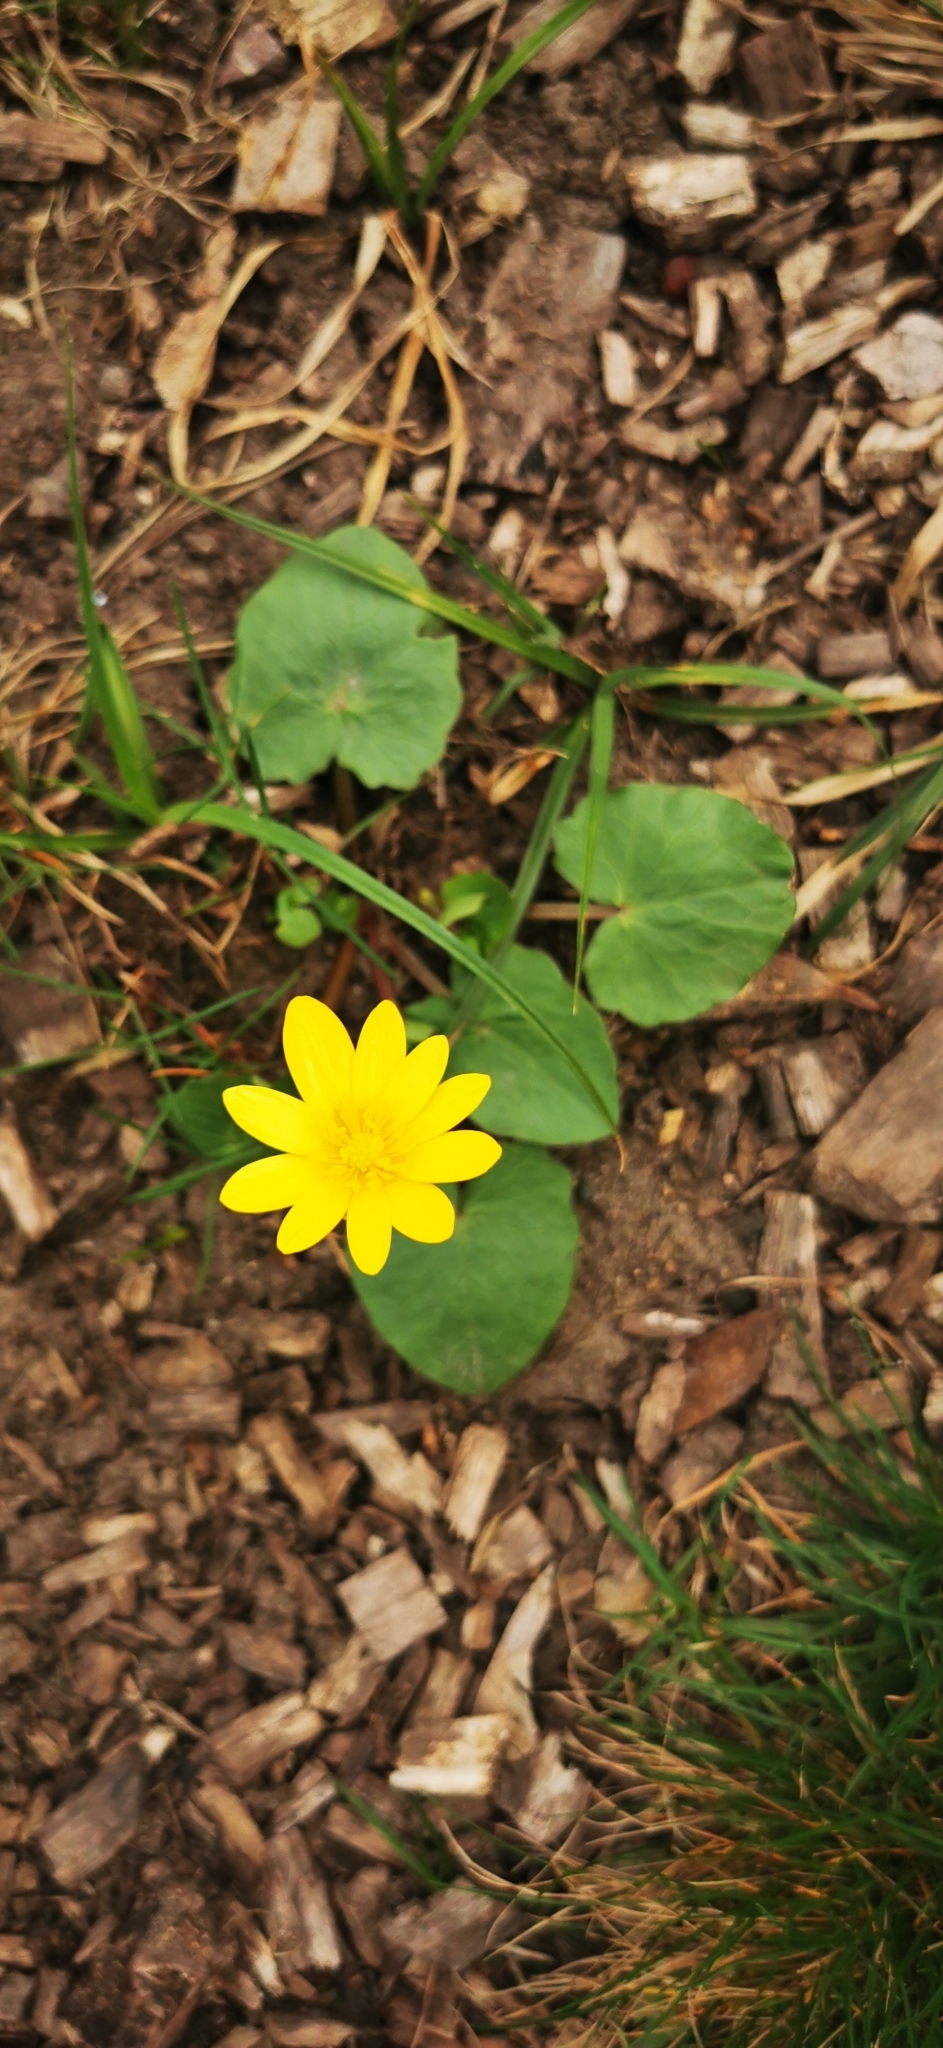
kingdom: Plantae
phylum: Tracheophyta
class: Magnoliopsida
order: Ranunculales
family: Ranunculaceae
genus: Ficaria
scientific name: Ficaria verna
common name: Lesser celandine
